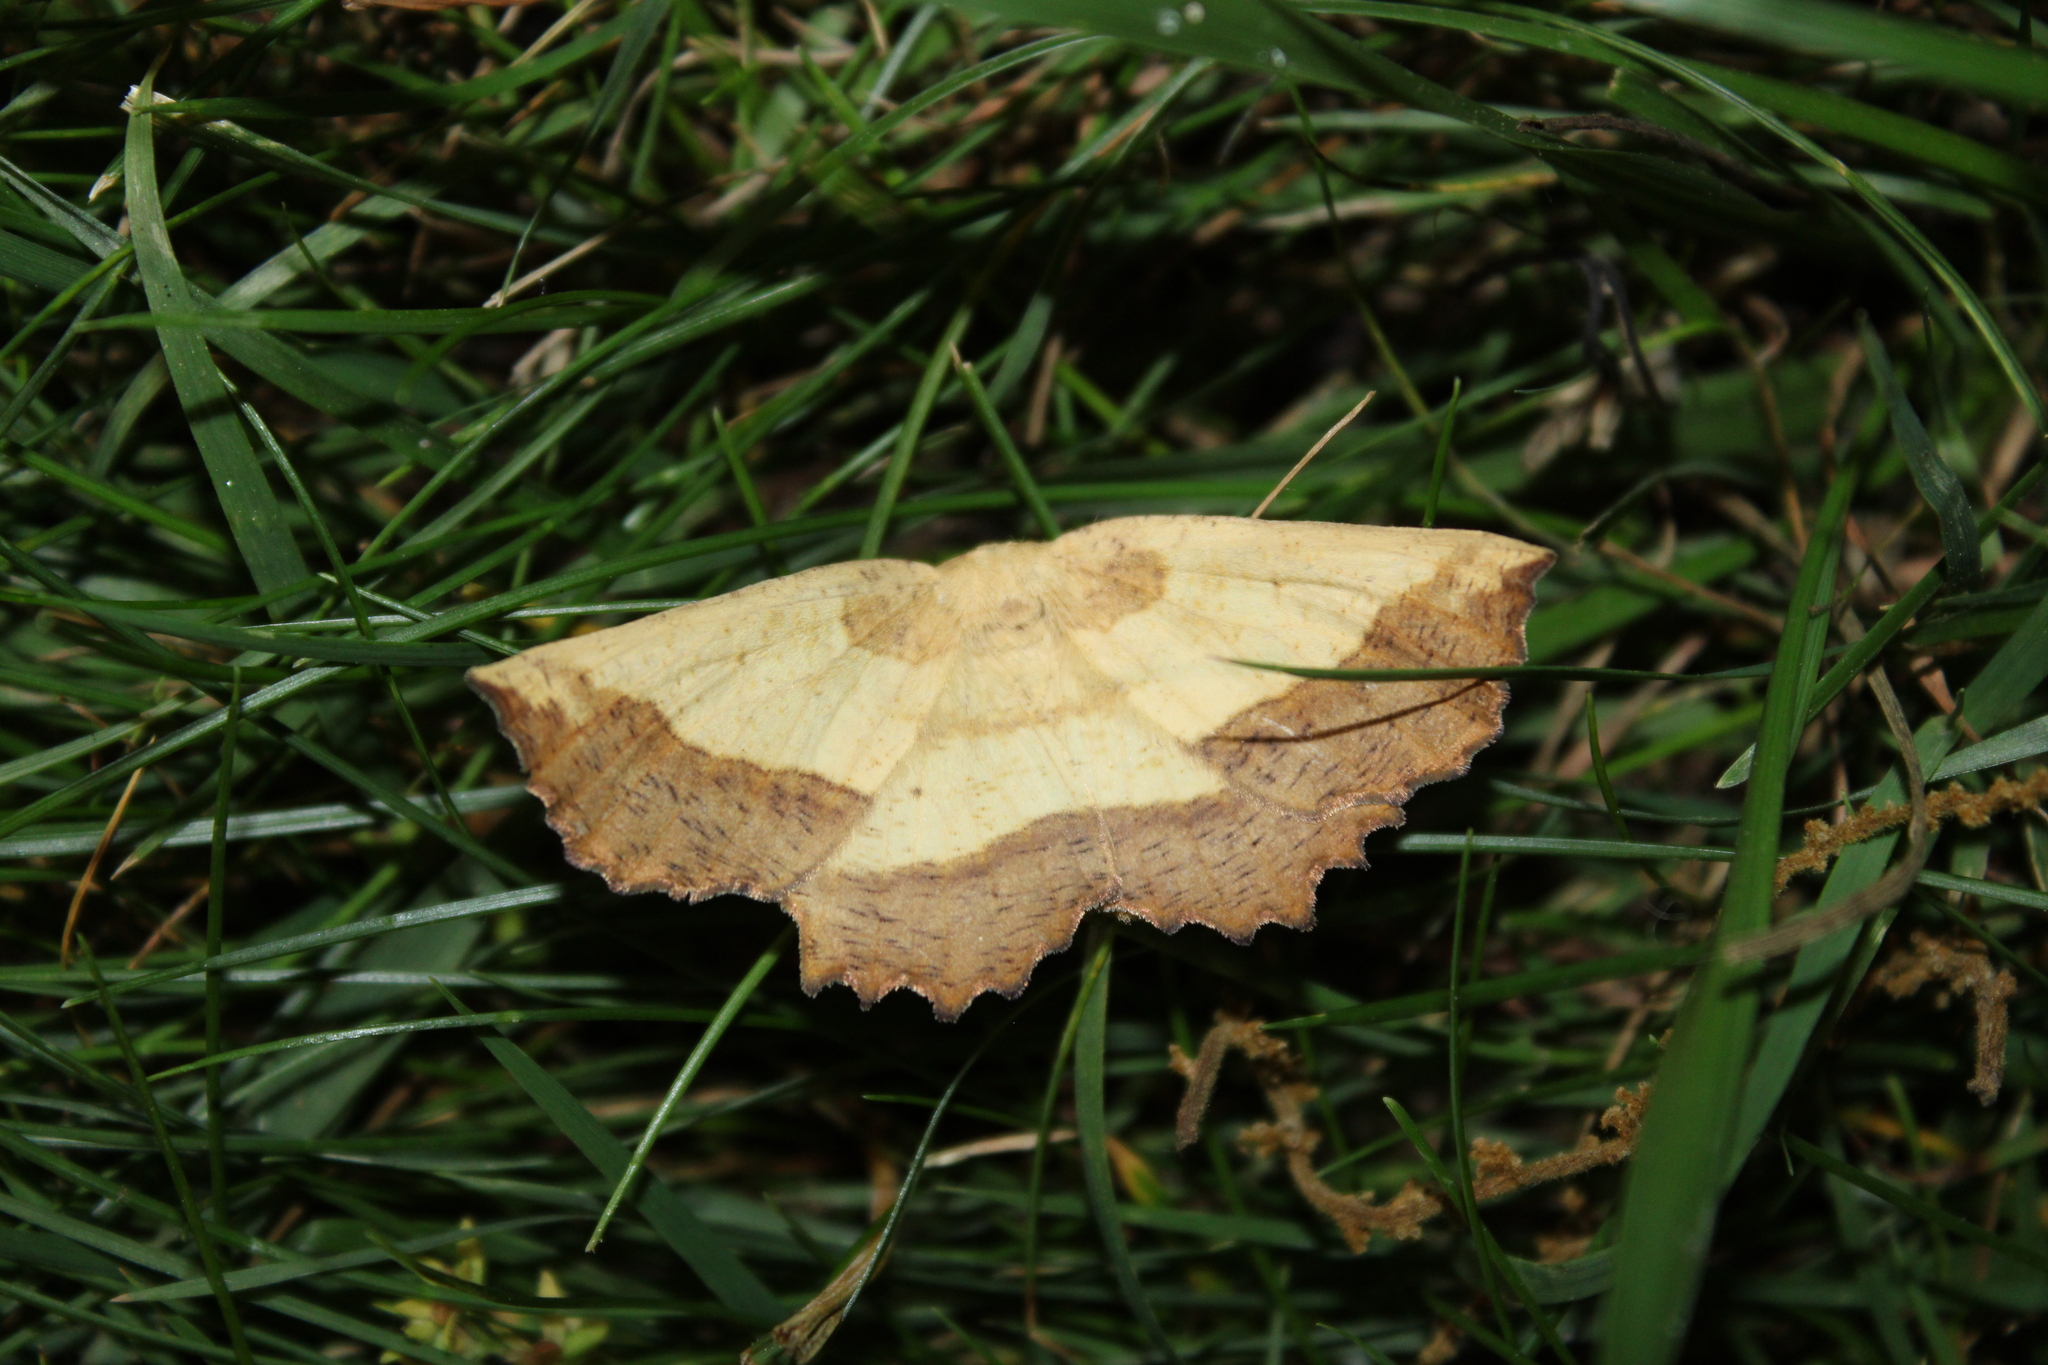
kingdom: Animalia
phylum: Arthropoda
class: Insecta
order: Lepidoptera
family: Geometridae
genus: Euchlaena
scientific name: Euchlaena serrata
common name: Saw wing
